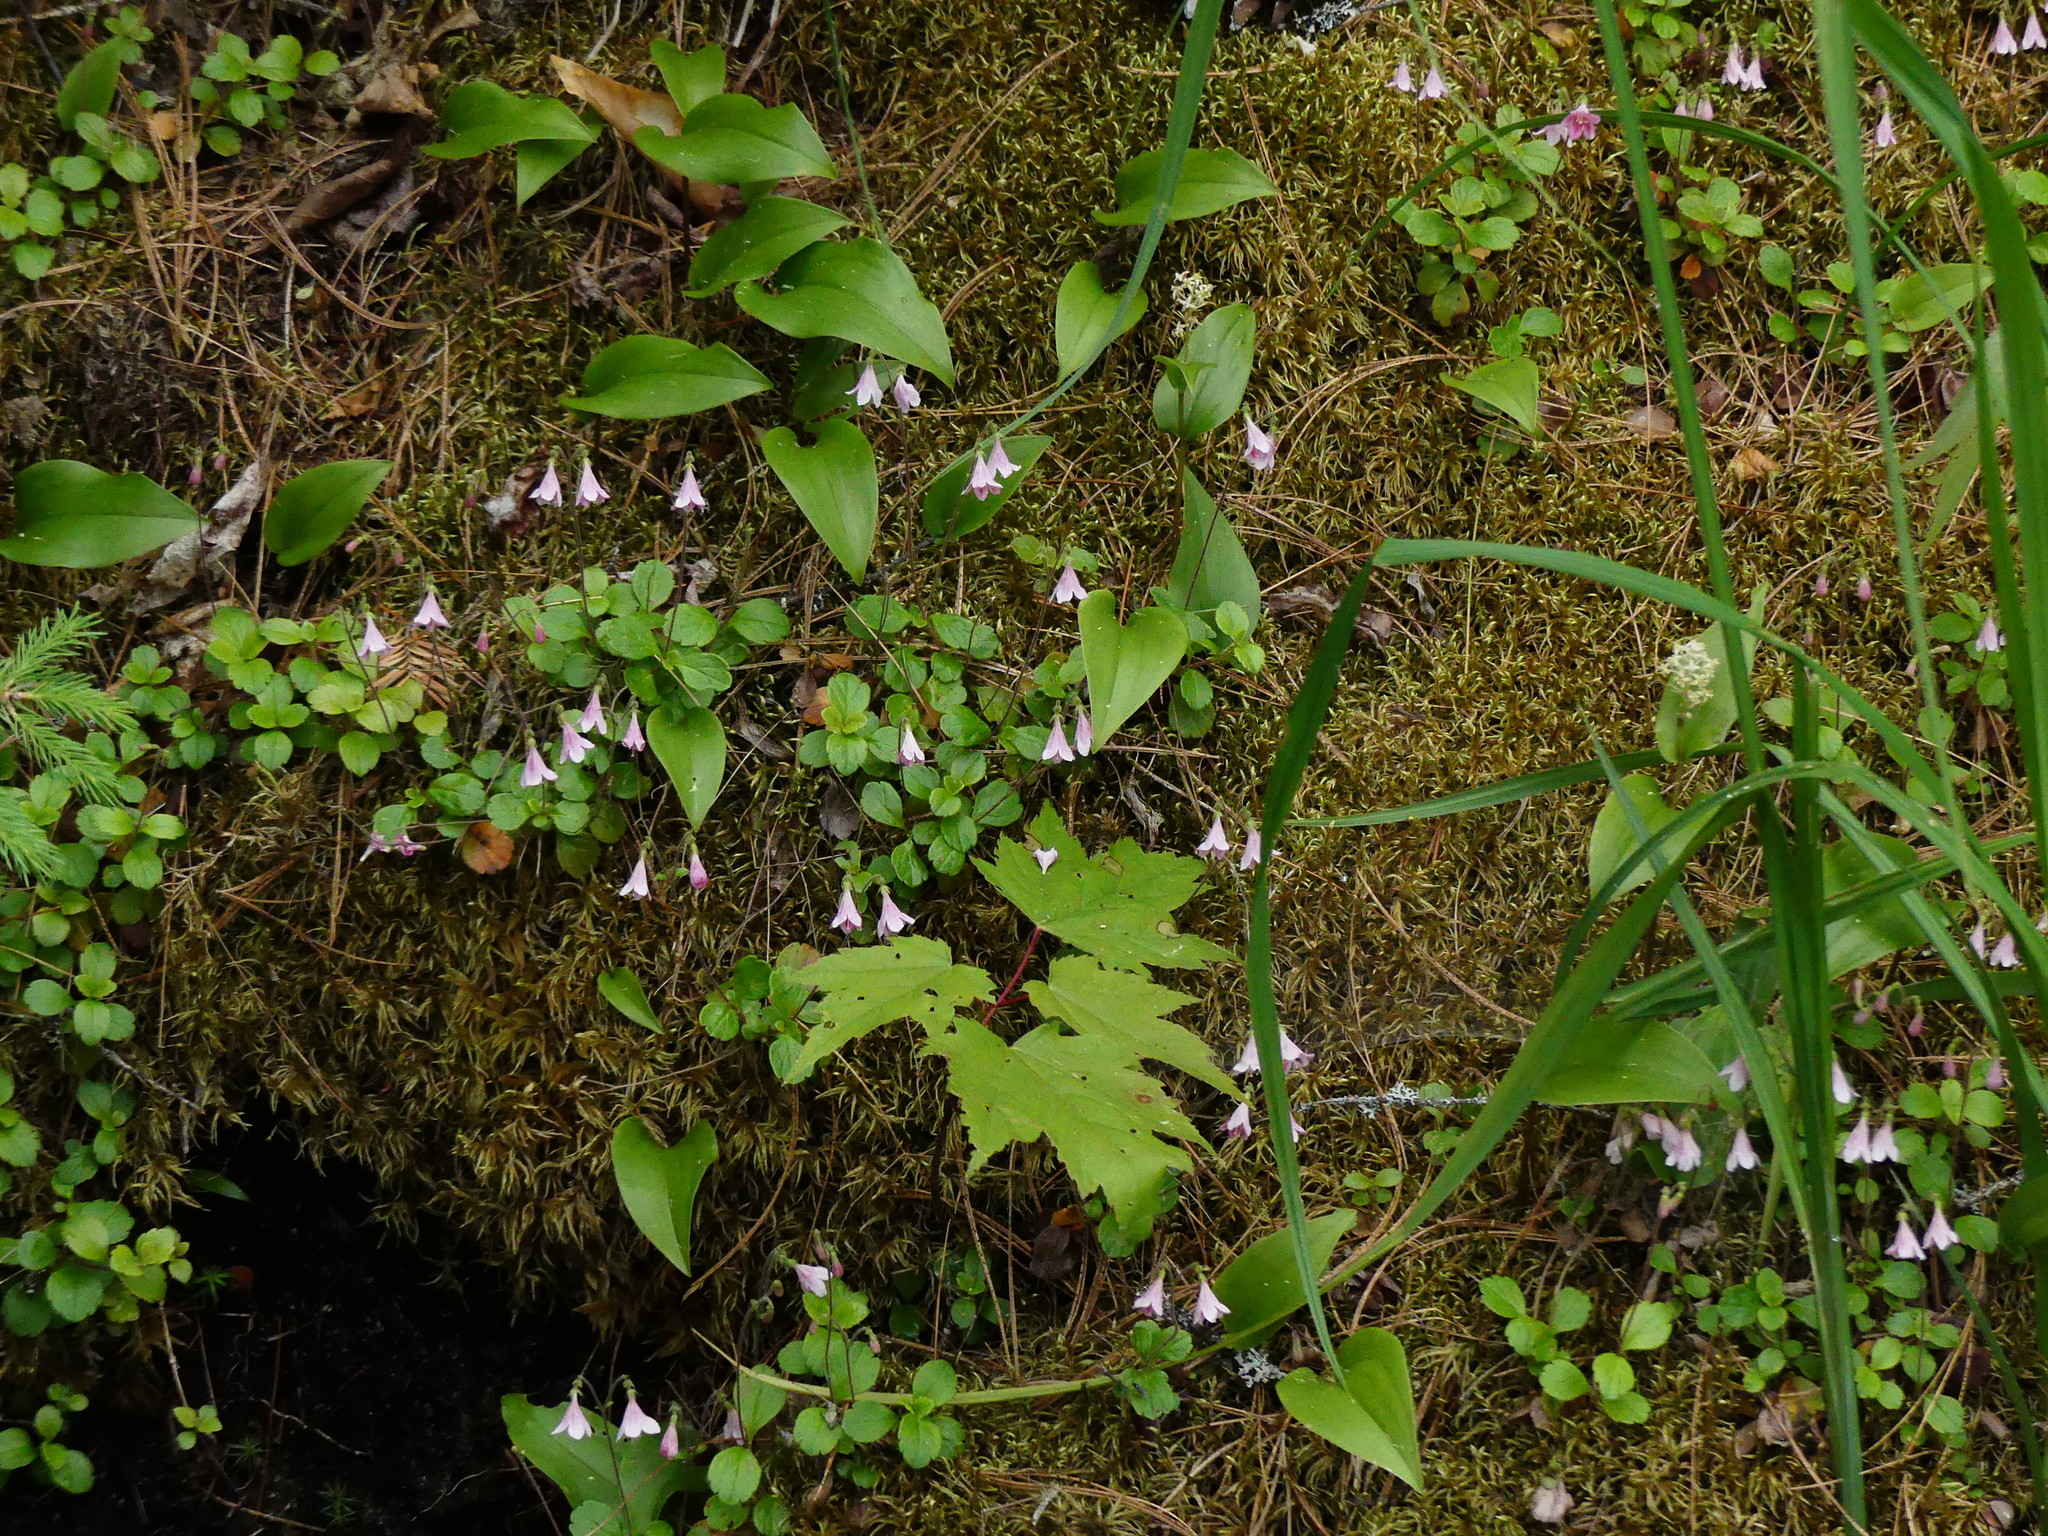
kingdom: Plantae
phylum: Tracheophyta
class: Magnoliopsida
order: Dipsacales
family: Caprifoliaceae
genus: Linnaea
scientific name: Linnaea borealis
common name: Twinflower
